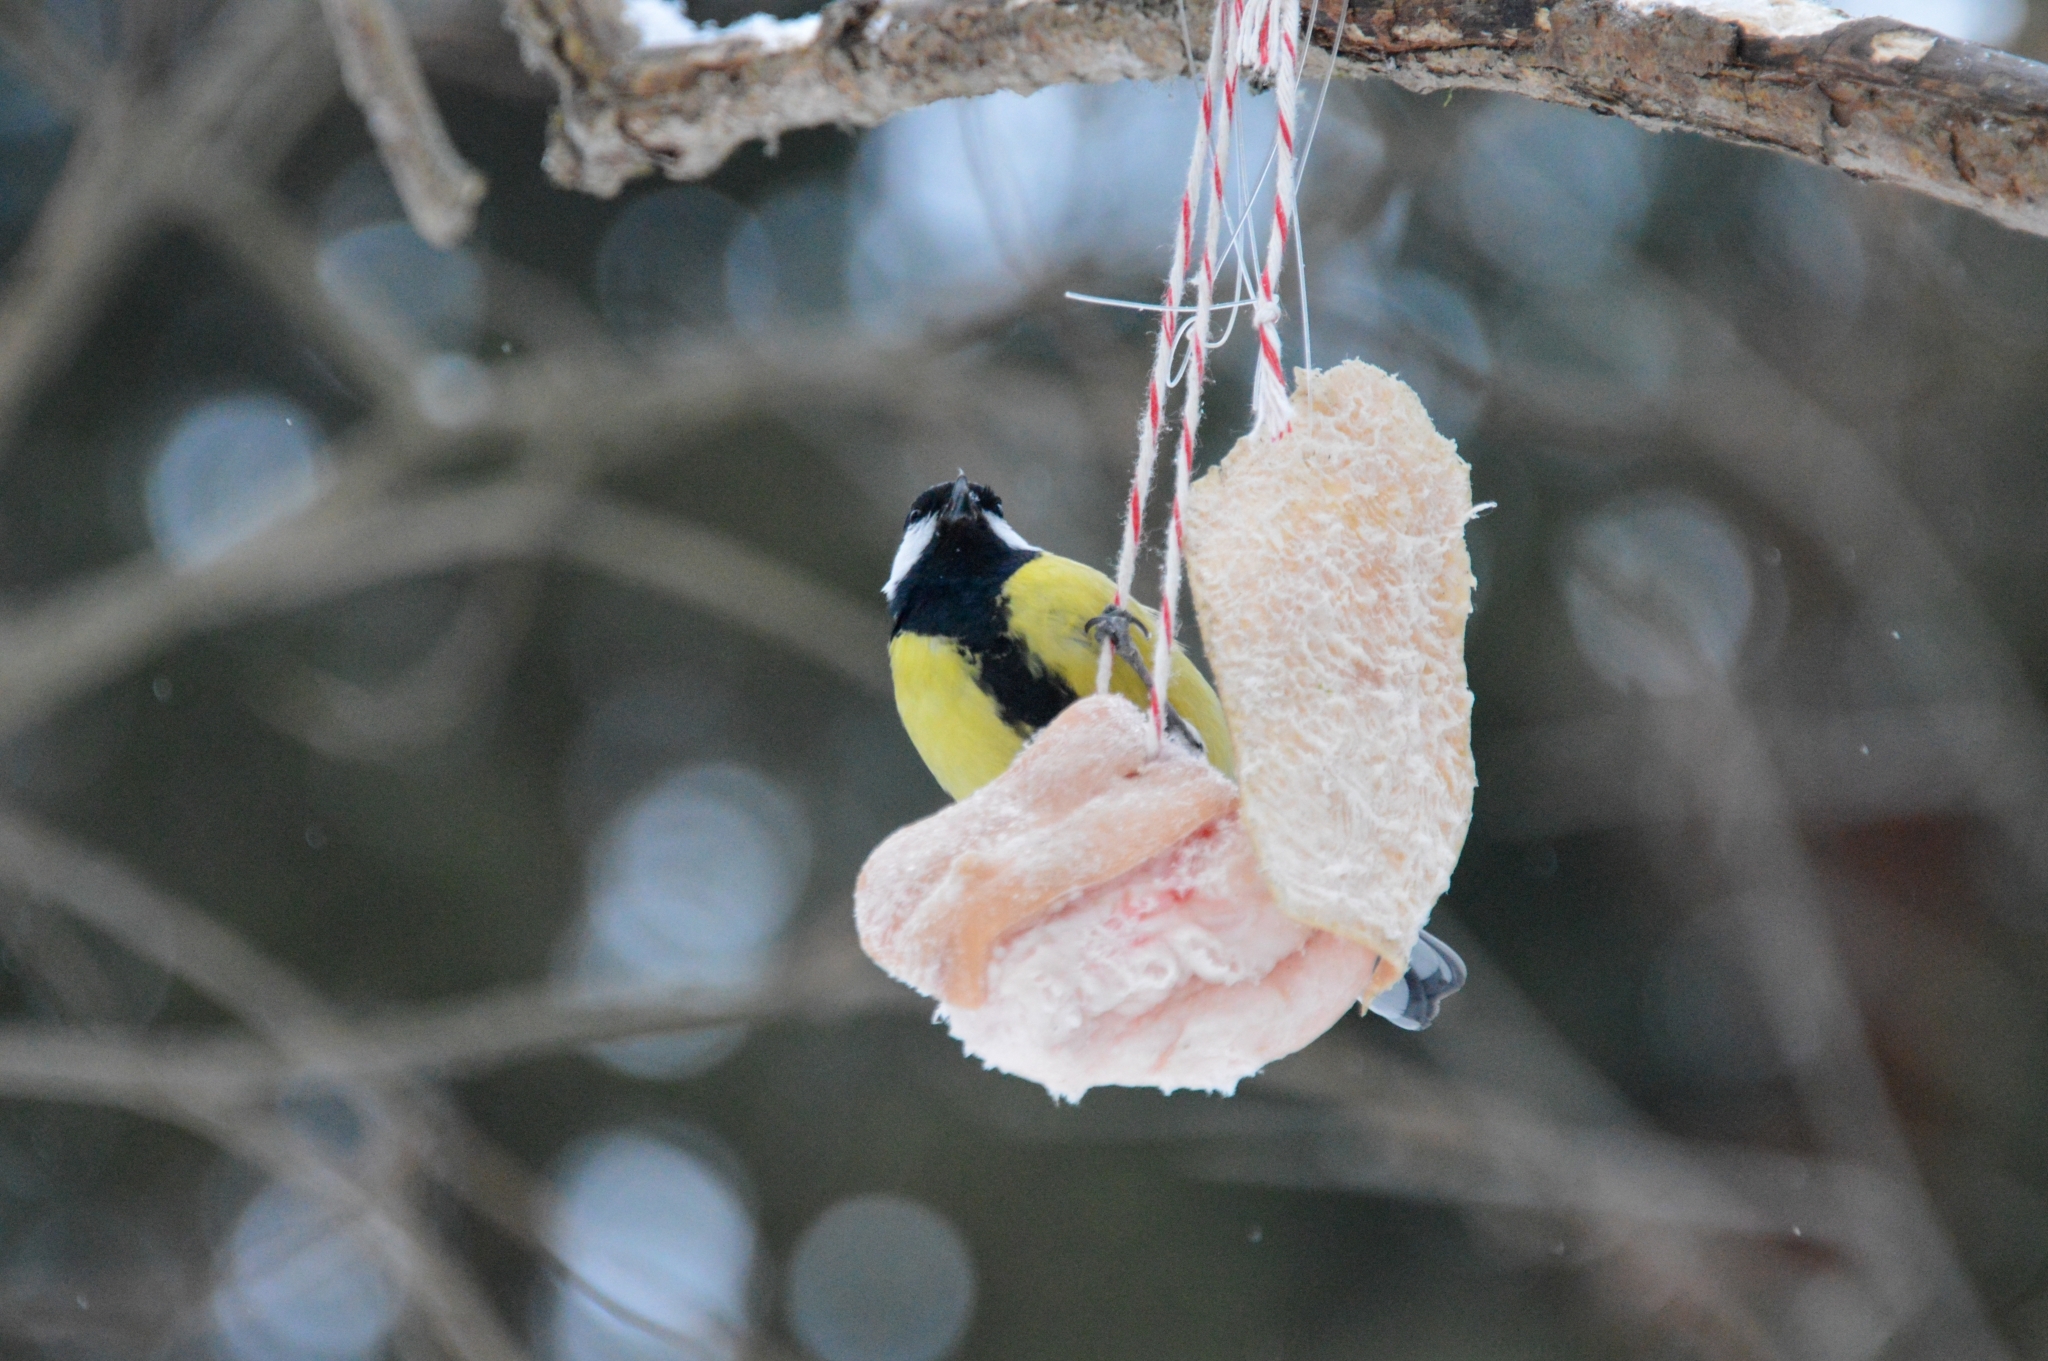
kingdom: Animalia
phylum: Chordata
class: Aves
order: Passeriformes
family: Paridae
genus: Parus
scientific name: Parus major
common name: Great tit
